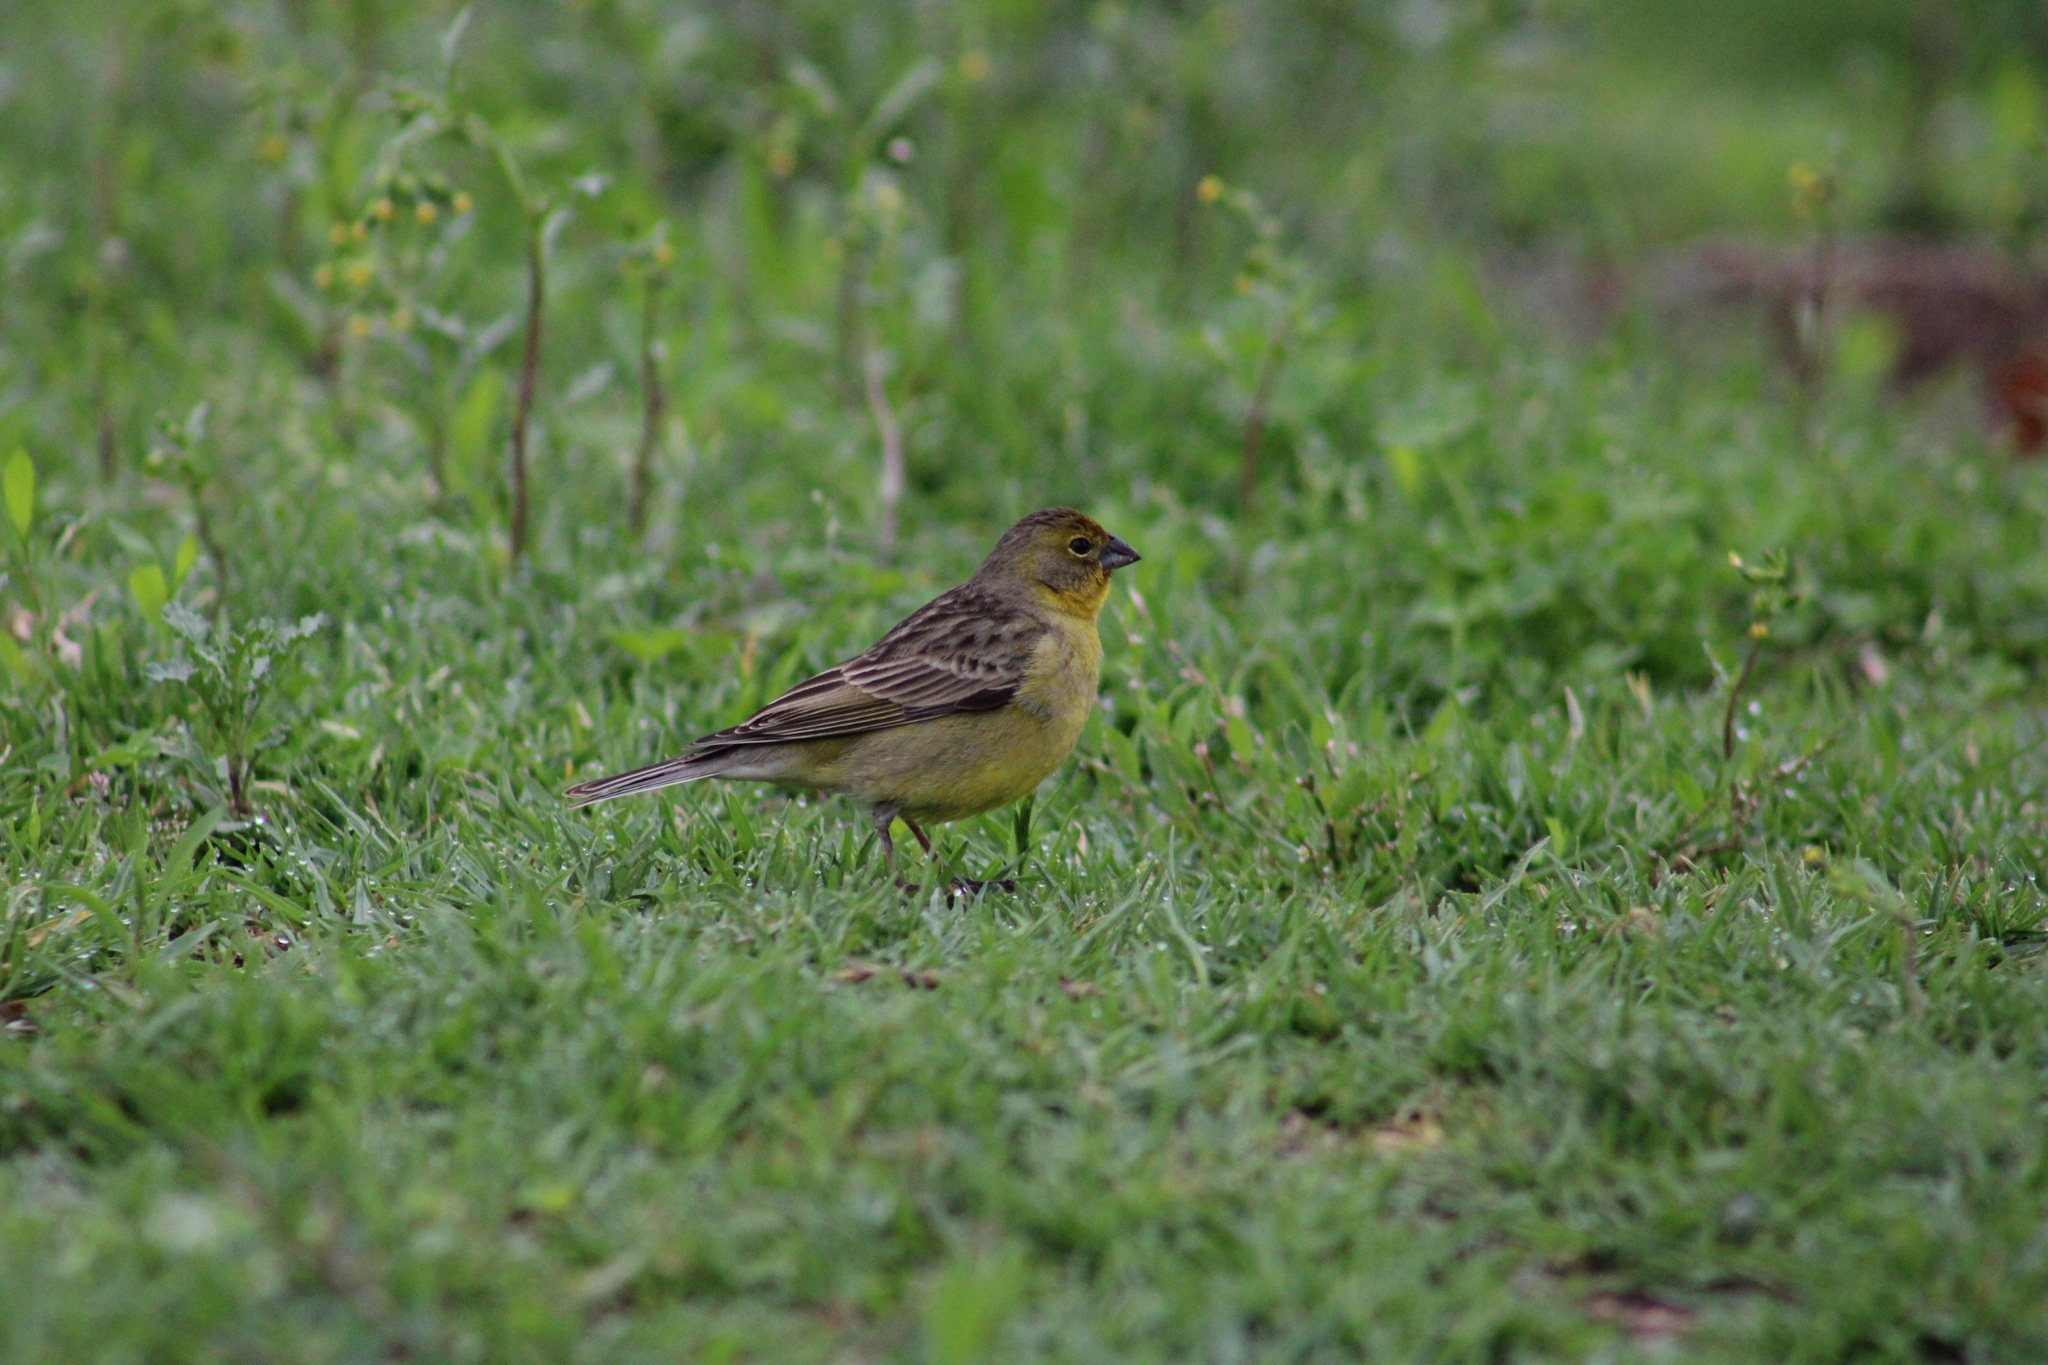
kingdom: Animalia
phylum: Chordata
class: Aves
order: Passeriformes
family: Thraupidae
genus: Sicalis
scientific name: Sicalis luteola
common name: Grassland yellow-finch
